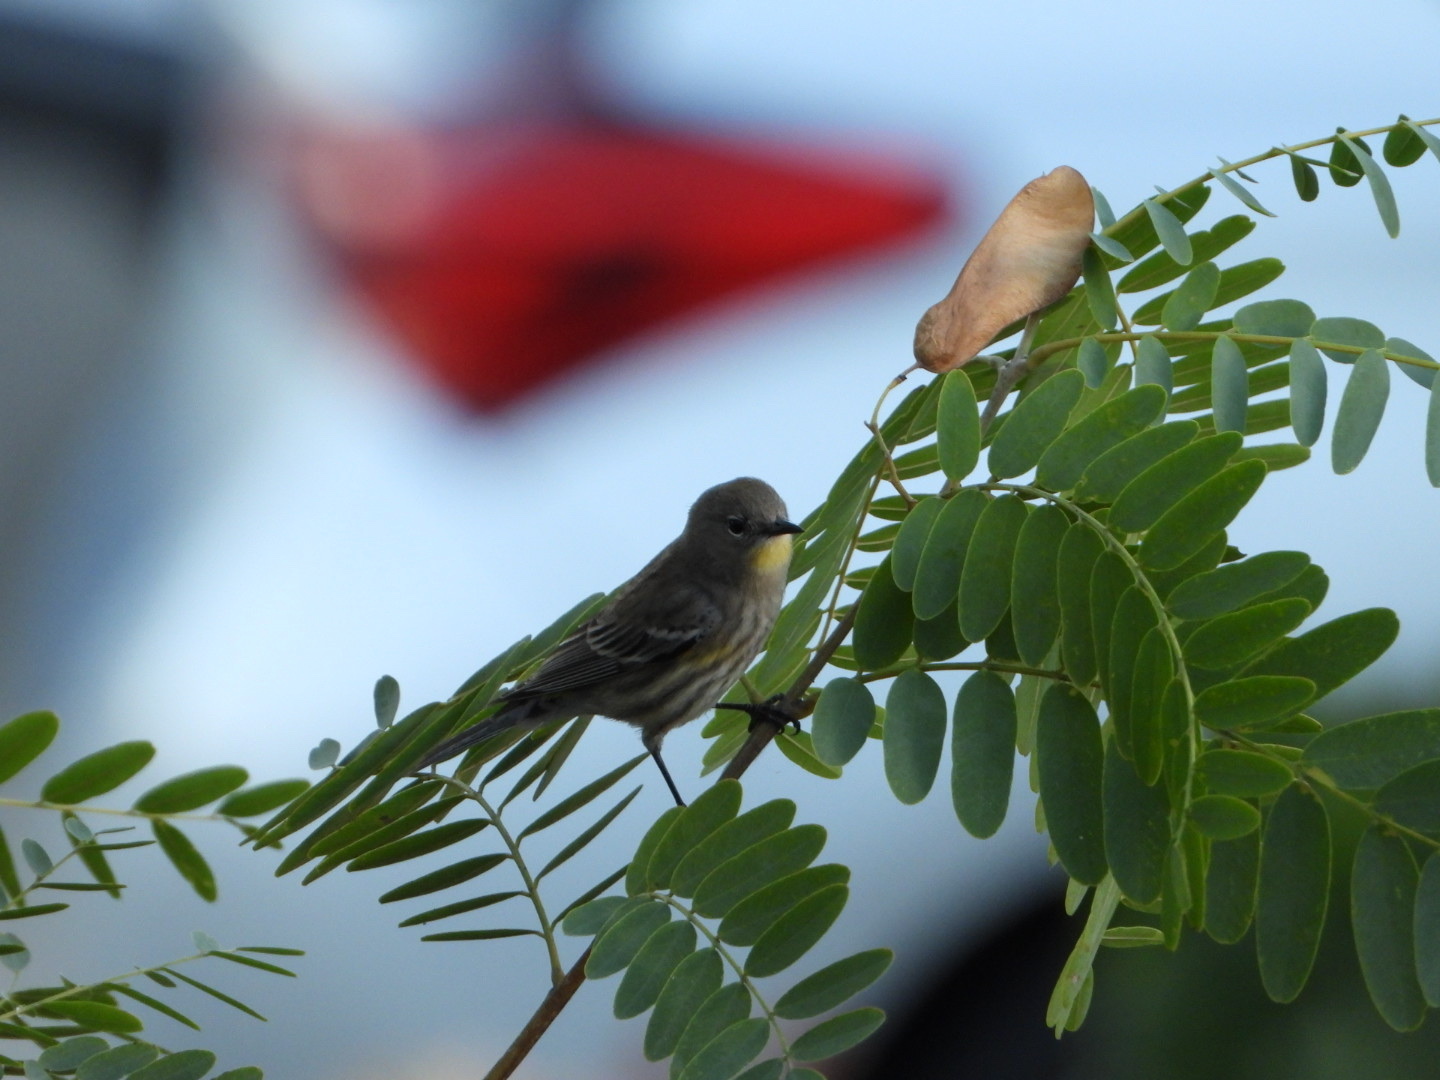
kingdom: Animalia
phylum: Chordata
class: Aves
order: Passeriformes
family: Parulidae
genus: Setophaga
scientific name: Setophaga coronata
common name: Myrtle warbler
